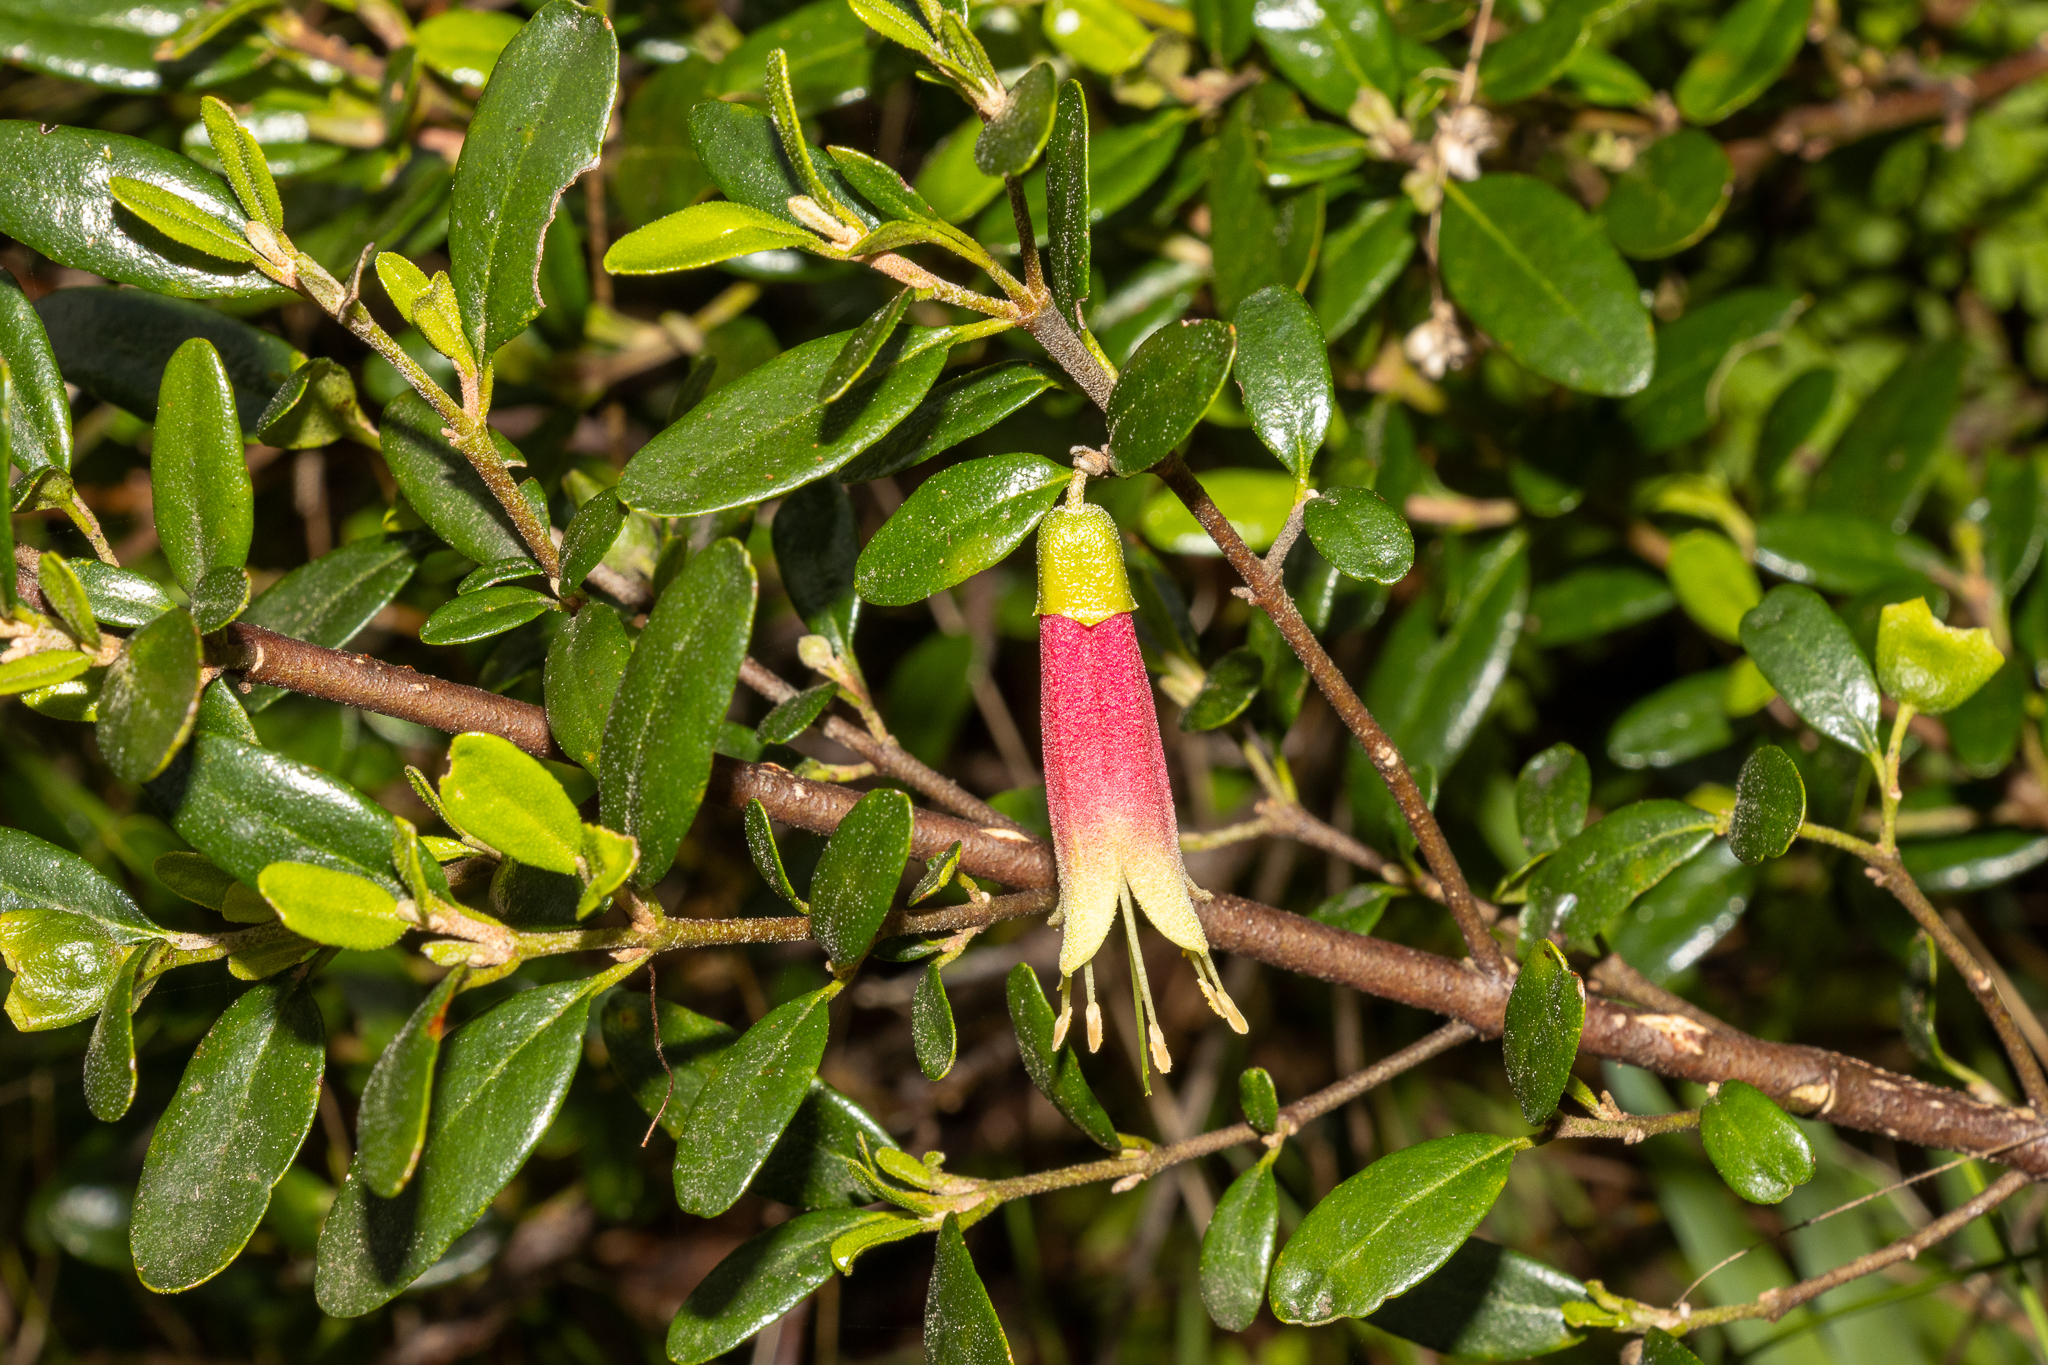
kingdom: Plantae
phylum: Tracheophyta
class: Magnoliopsida
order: Sapindales
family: Rutaceae
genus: Correa
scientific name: Correa glabra
